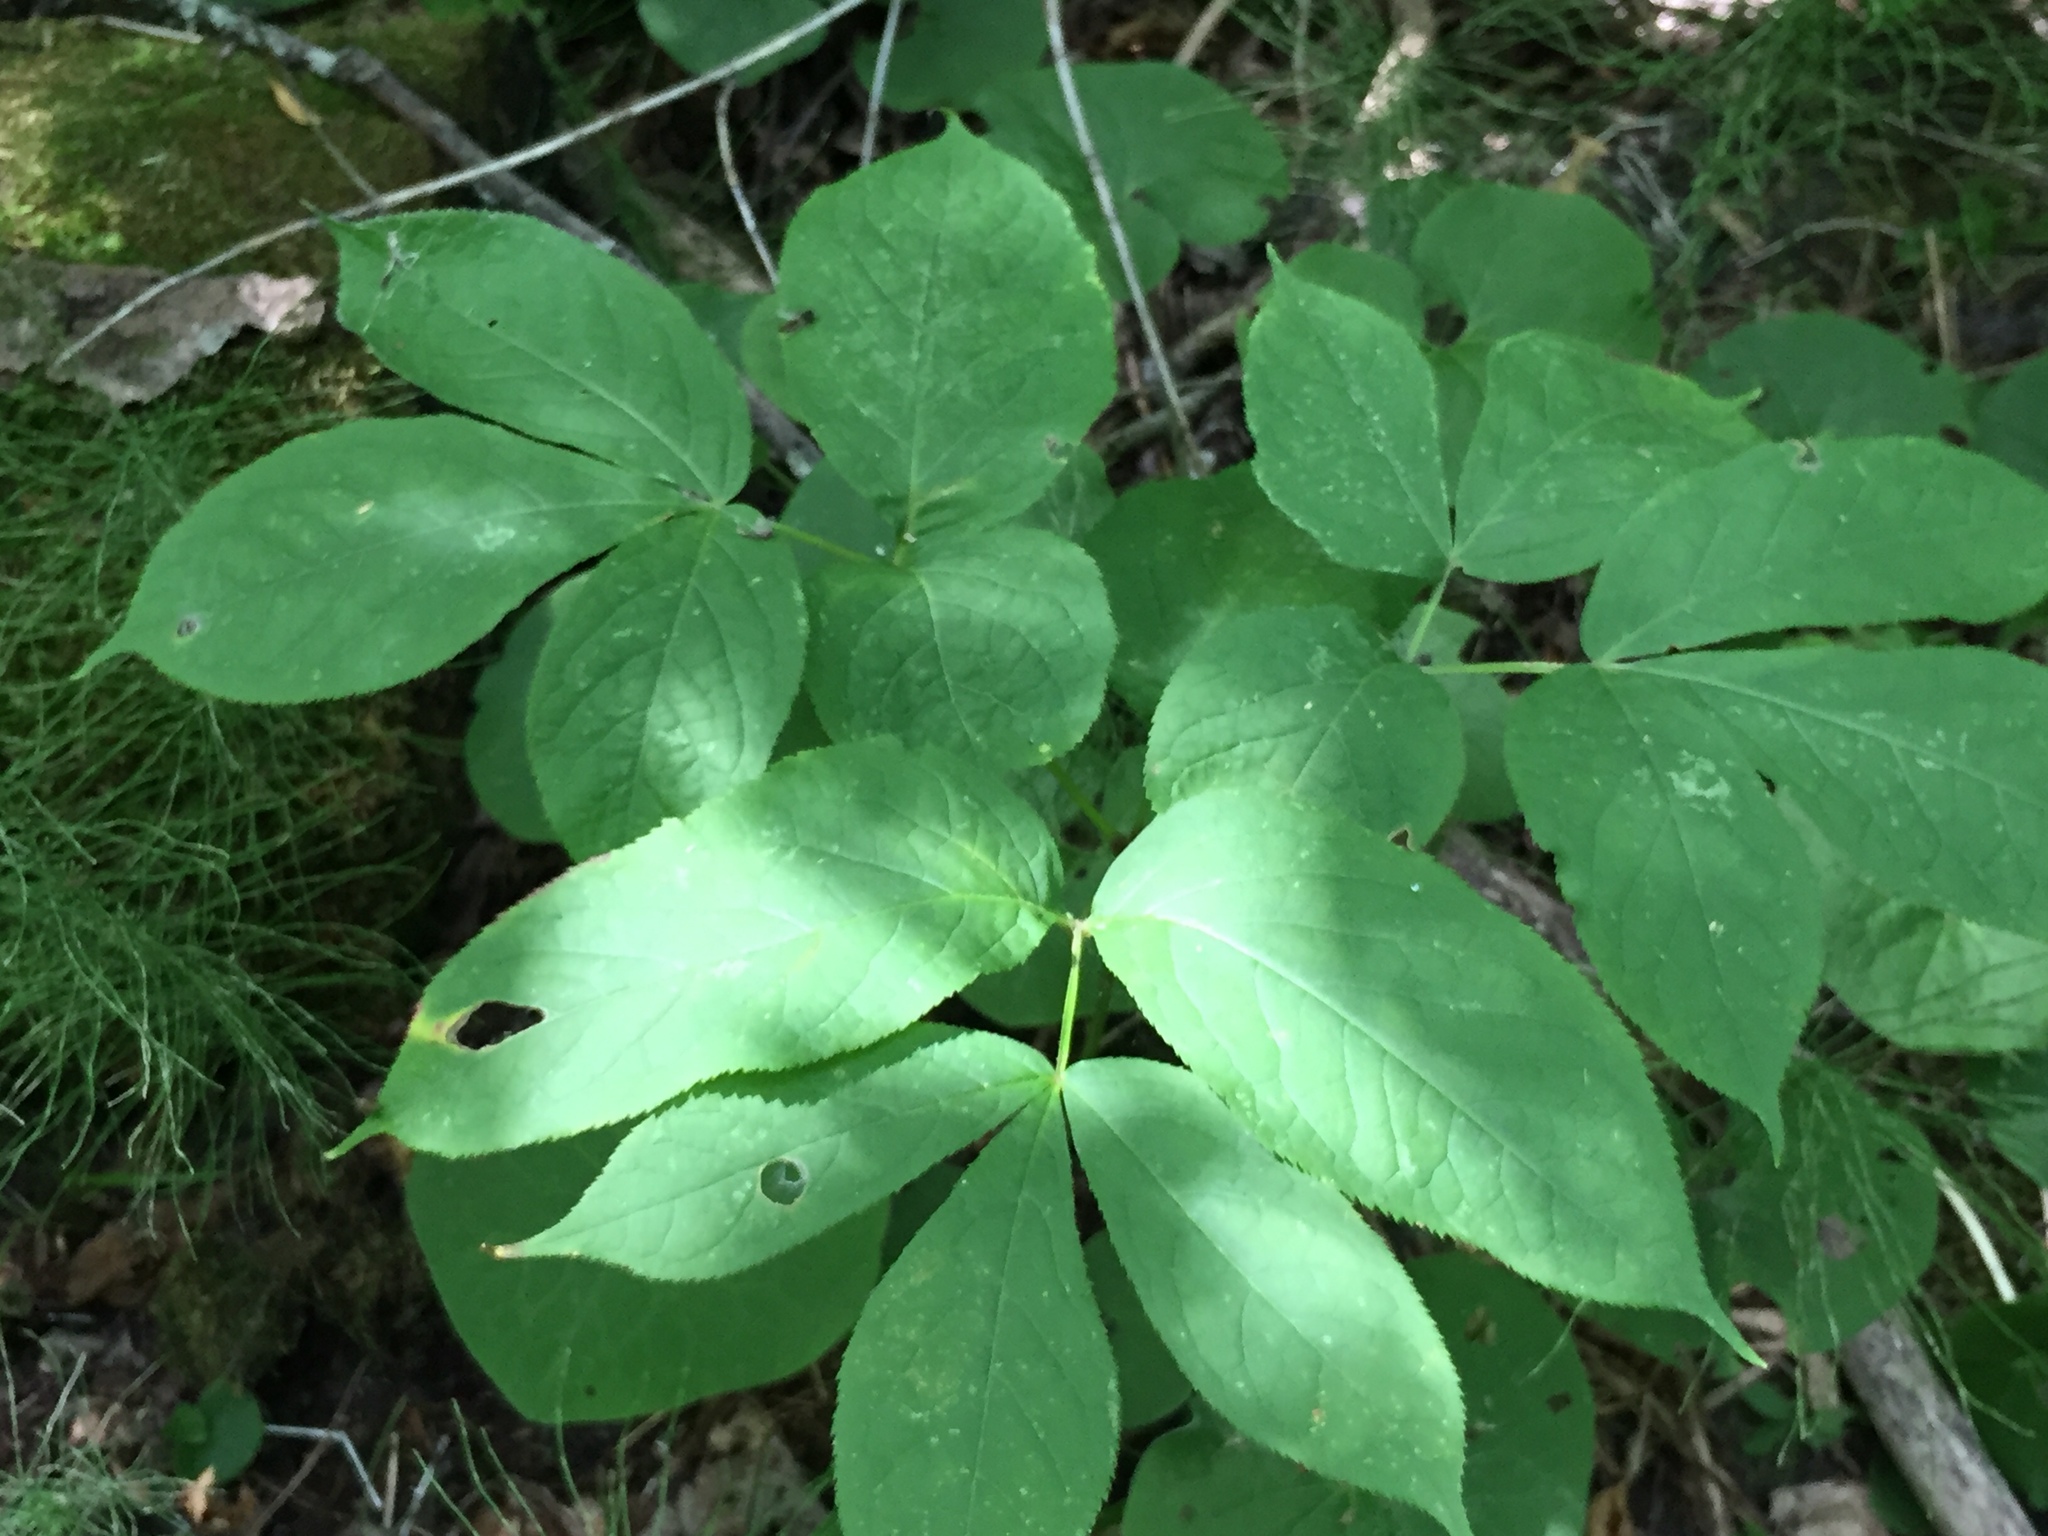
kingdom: Plantae
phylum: Tracheophyta
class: Magnoliopsida
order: Apiales
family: Araliaceae
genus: Aralia
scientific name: Aralia nudicaulis
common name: Wild sarsaparilla
